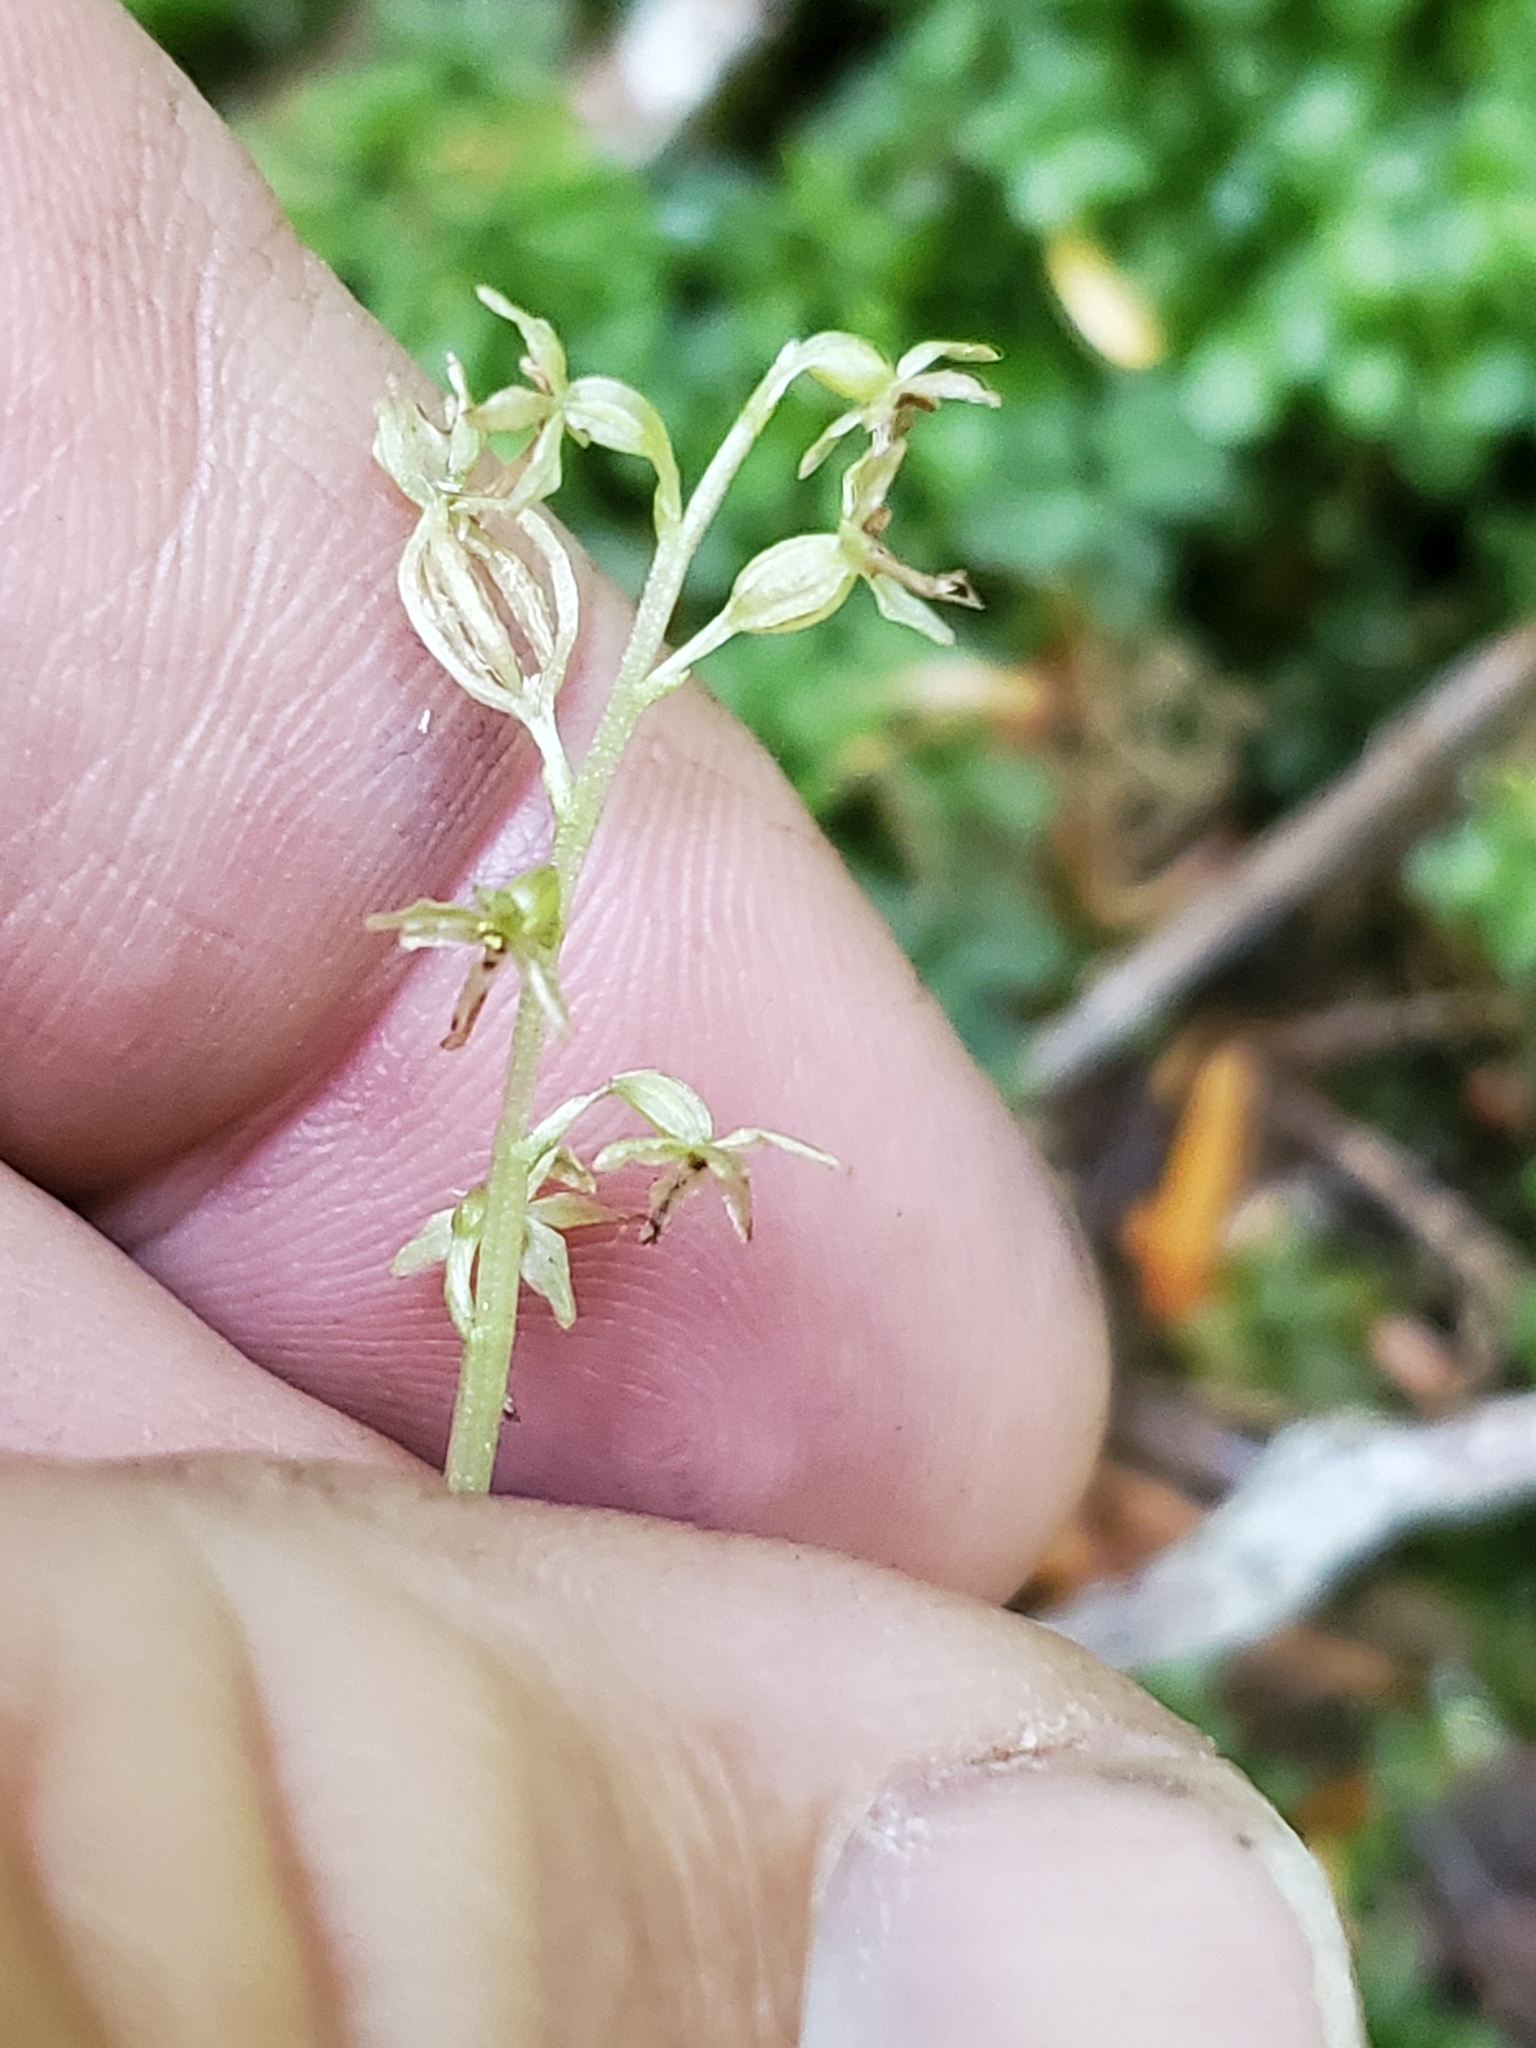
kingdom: Plantae
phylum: Tracheophyta
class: Liliopsida
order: Asparagales
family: Orchidaceae
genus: Neottia
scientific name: Neottia cordata
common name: Lesser twayblade
